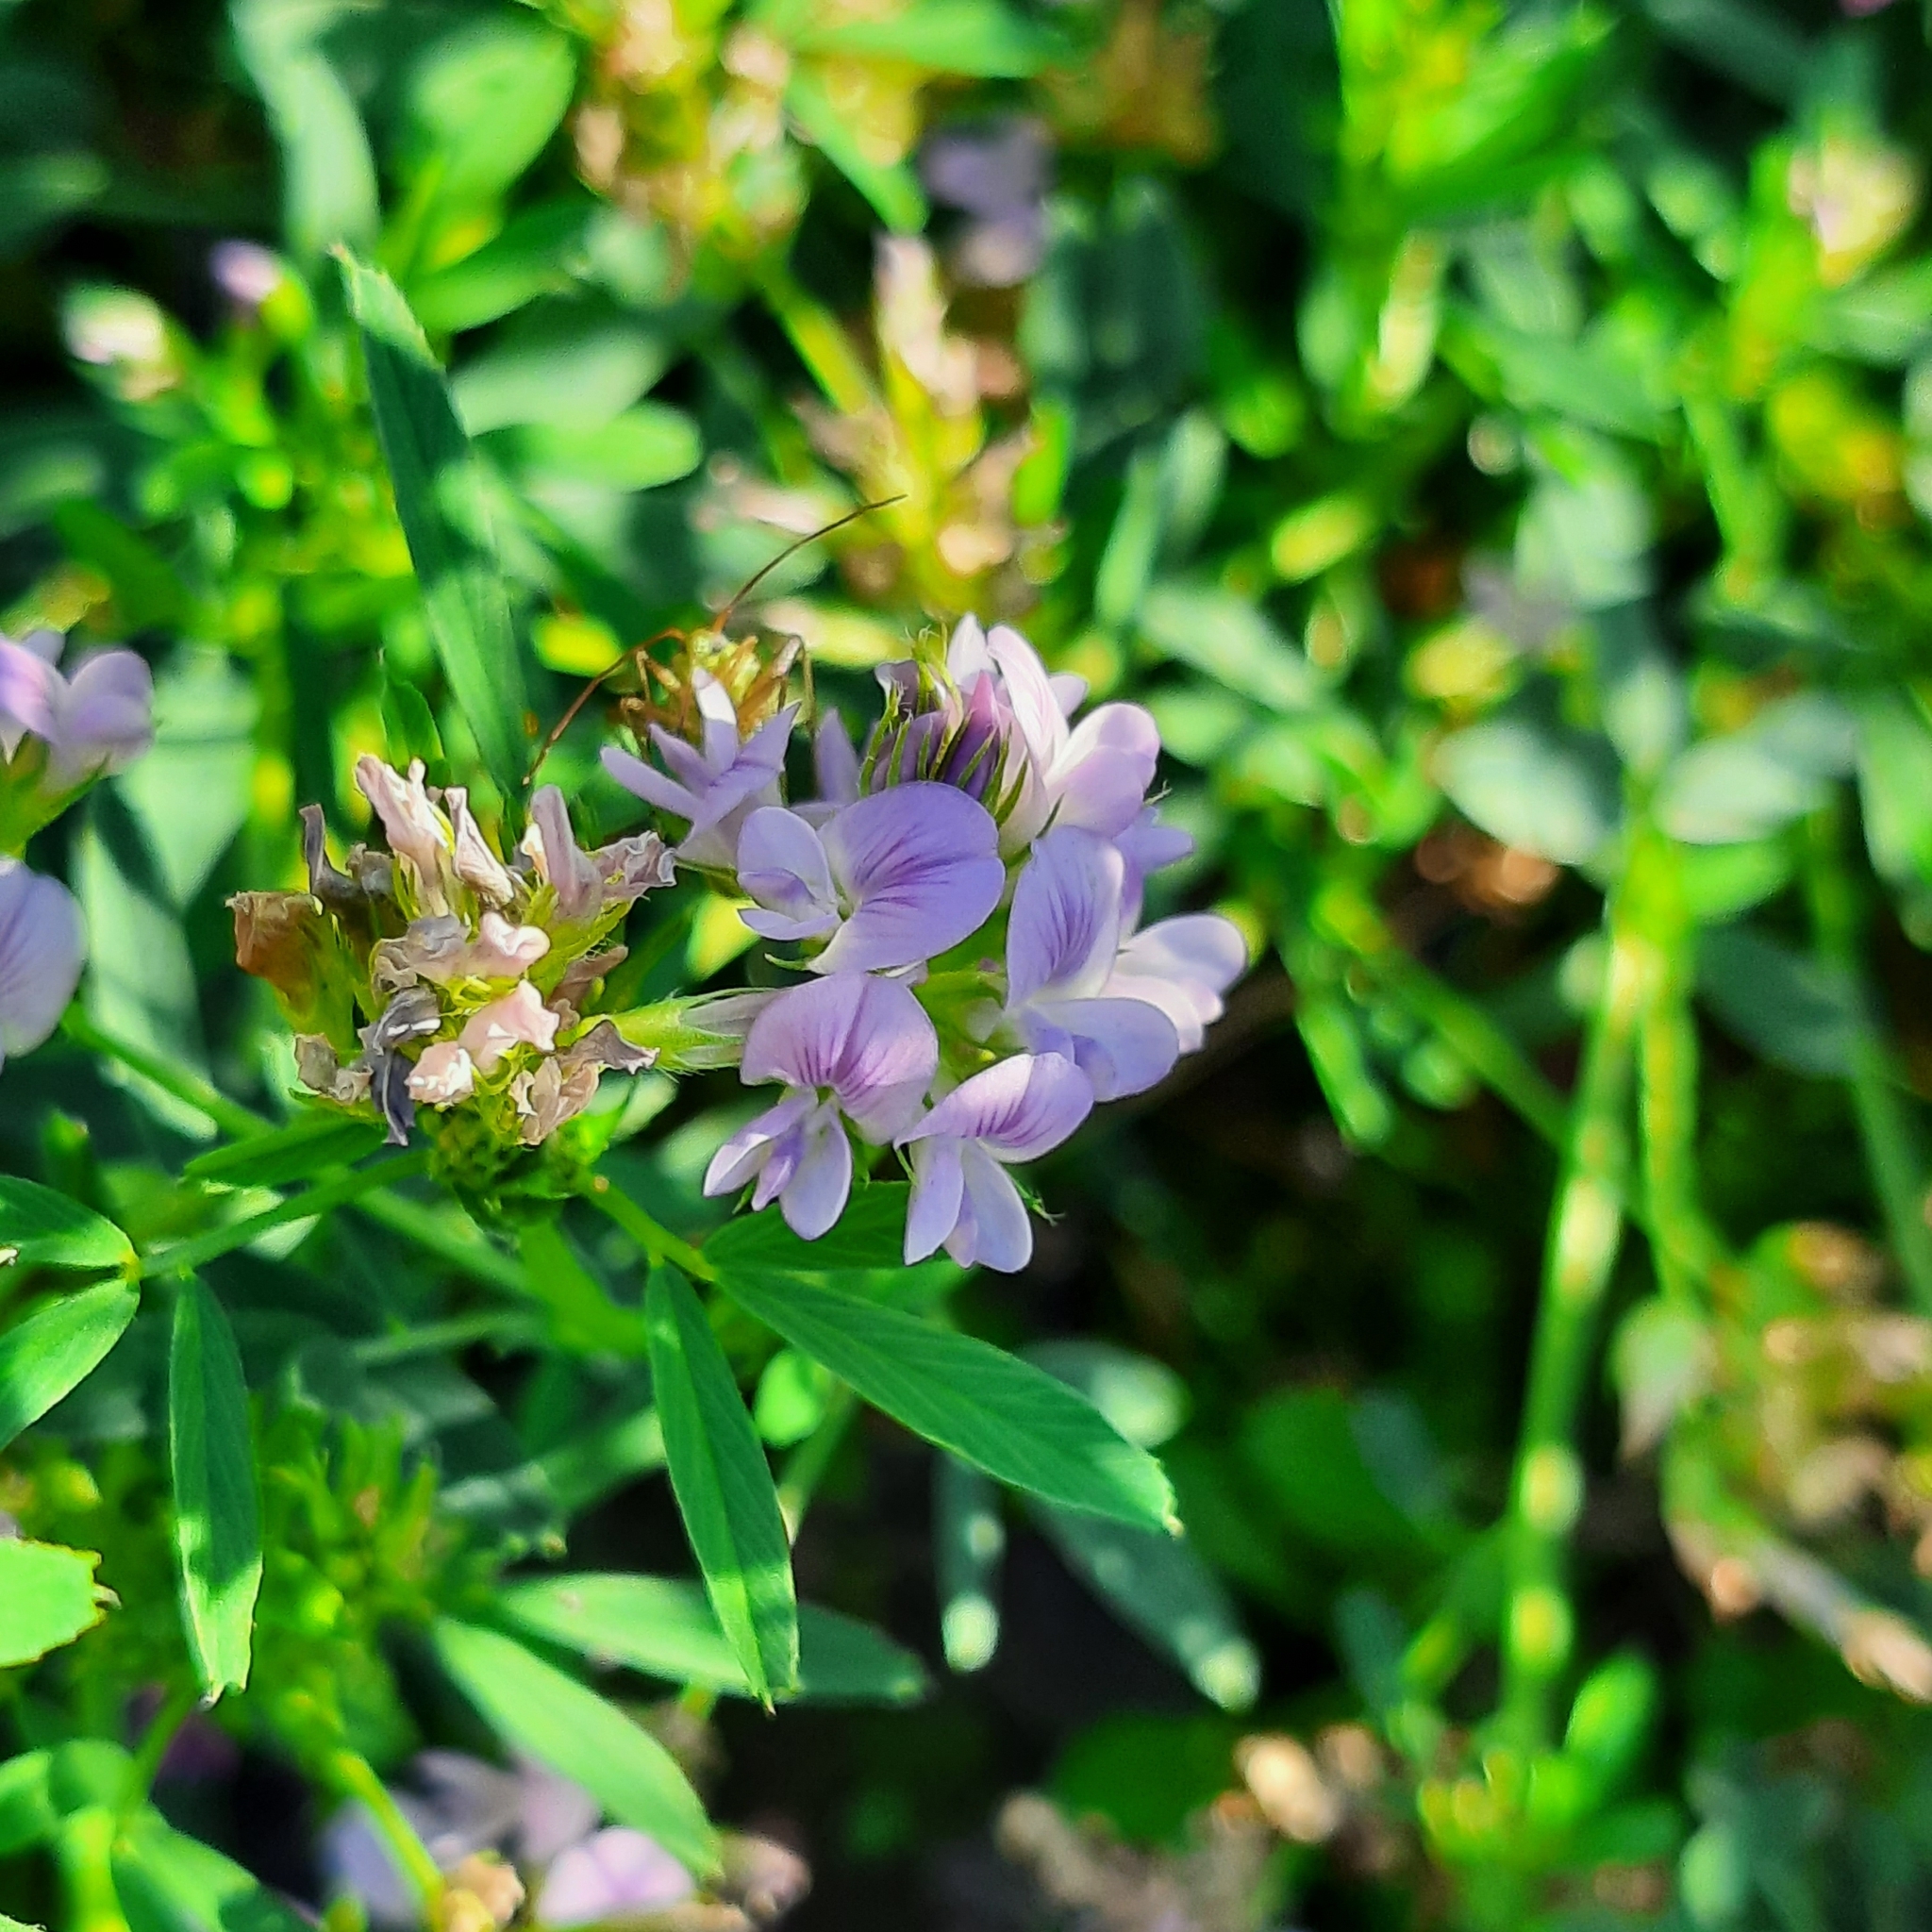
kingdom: Plantae
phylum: Tracheophyta
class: Magnoliopsida
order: Fabales
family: Fabaceae
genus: Medicago
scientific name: Medicago sativa
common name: Alfalfa
